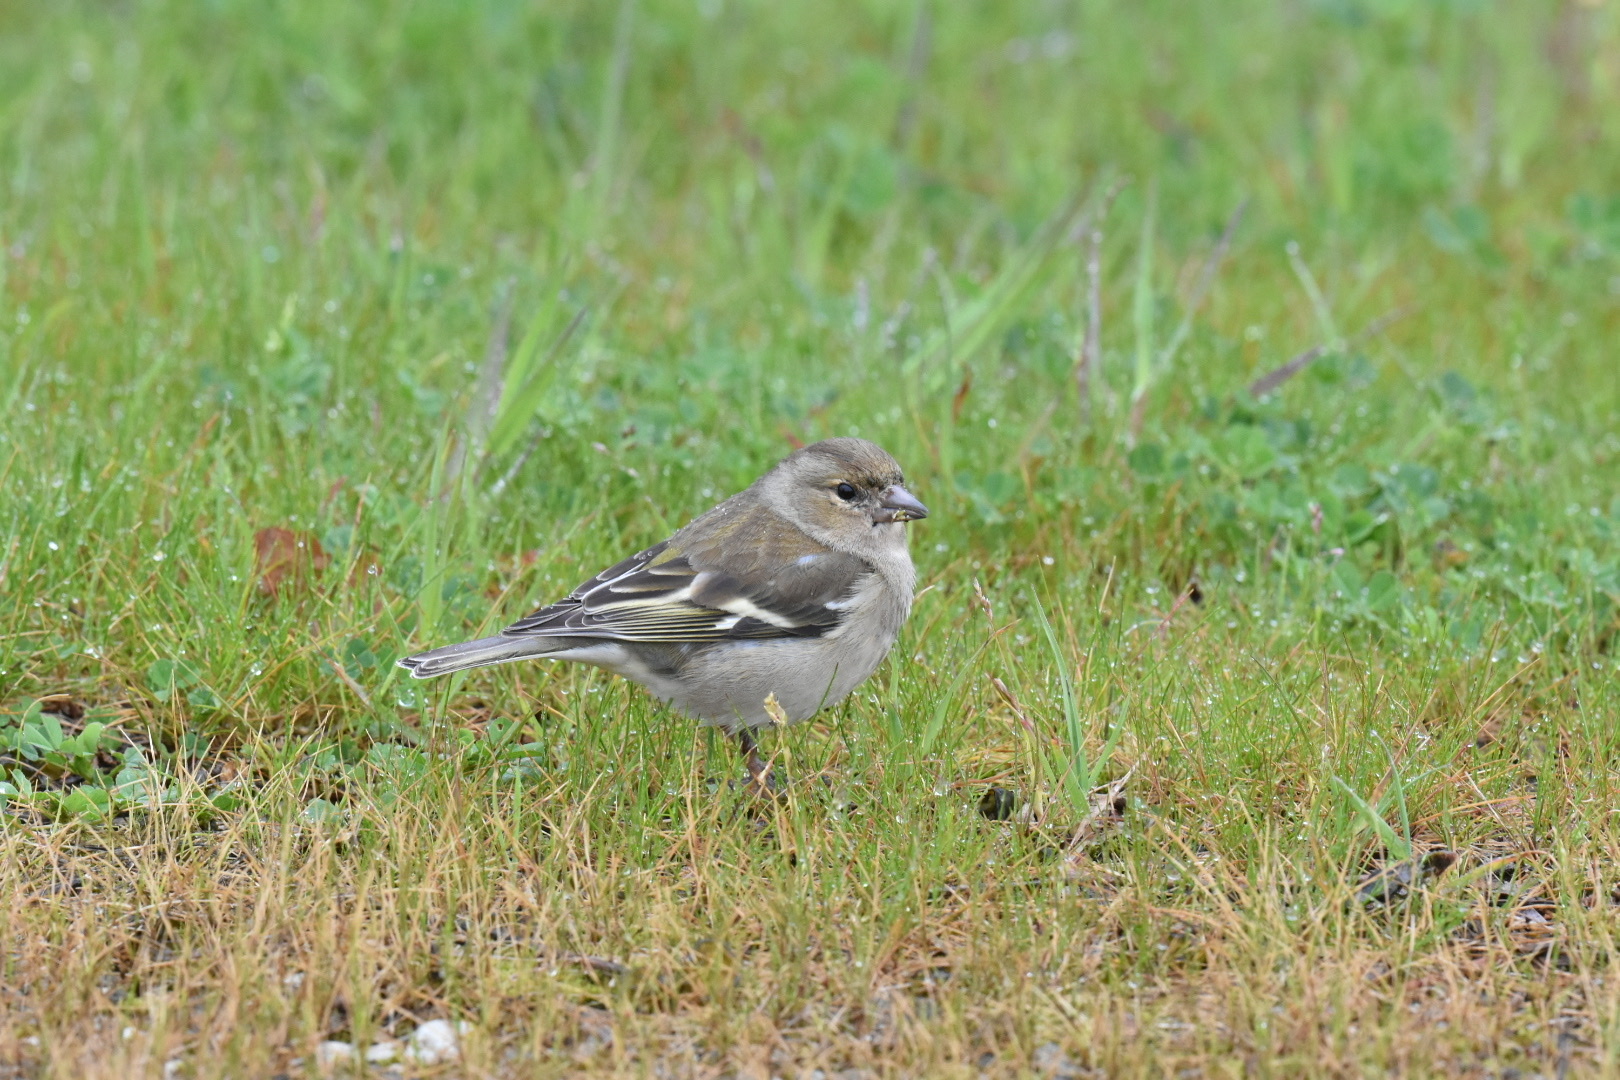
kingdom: Animalia
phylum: Chordata
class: Aves
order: Passeriformes
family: Fringillidae
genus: Fringilla
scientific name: Fringilla coelebs
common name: Common chaffinch
